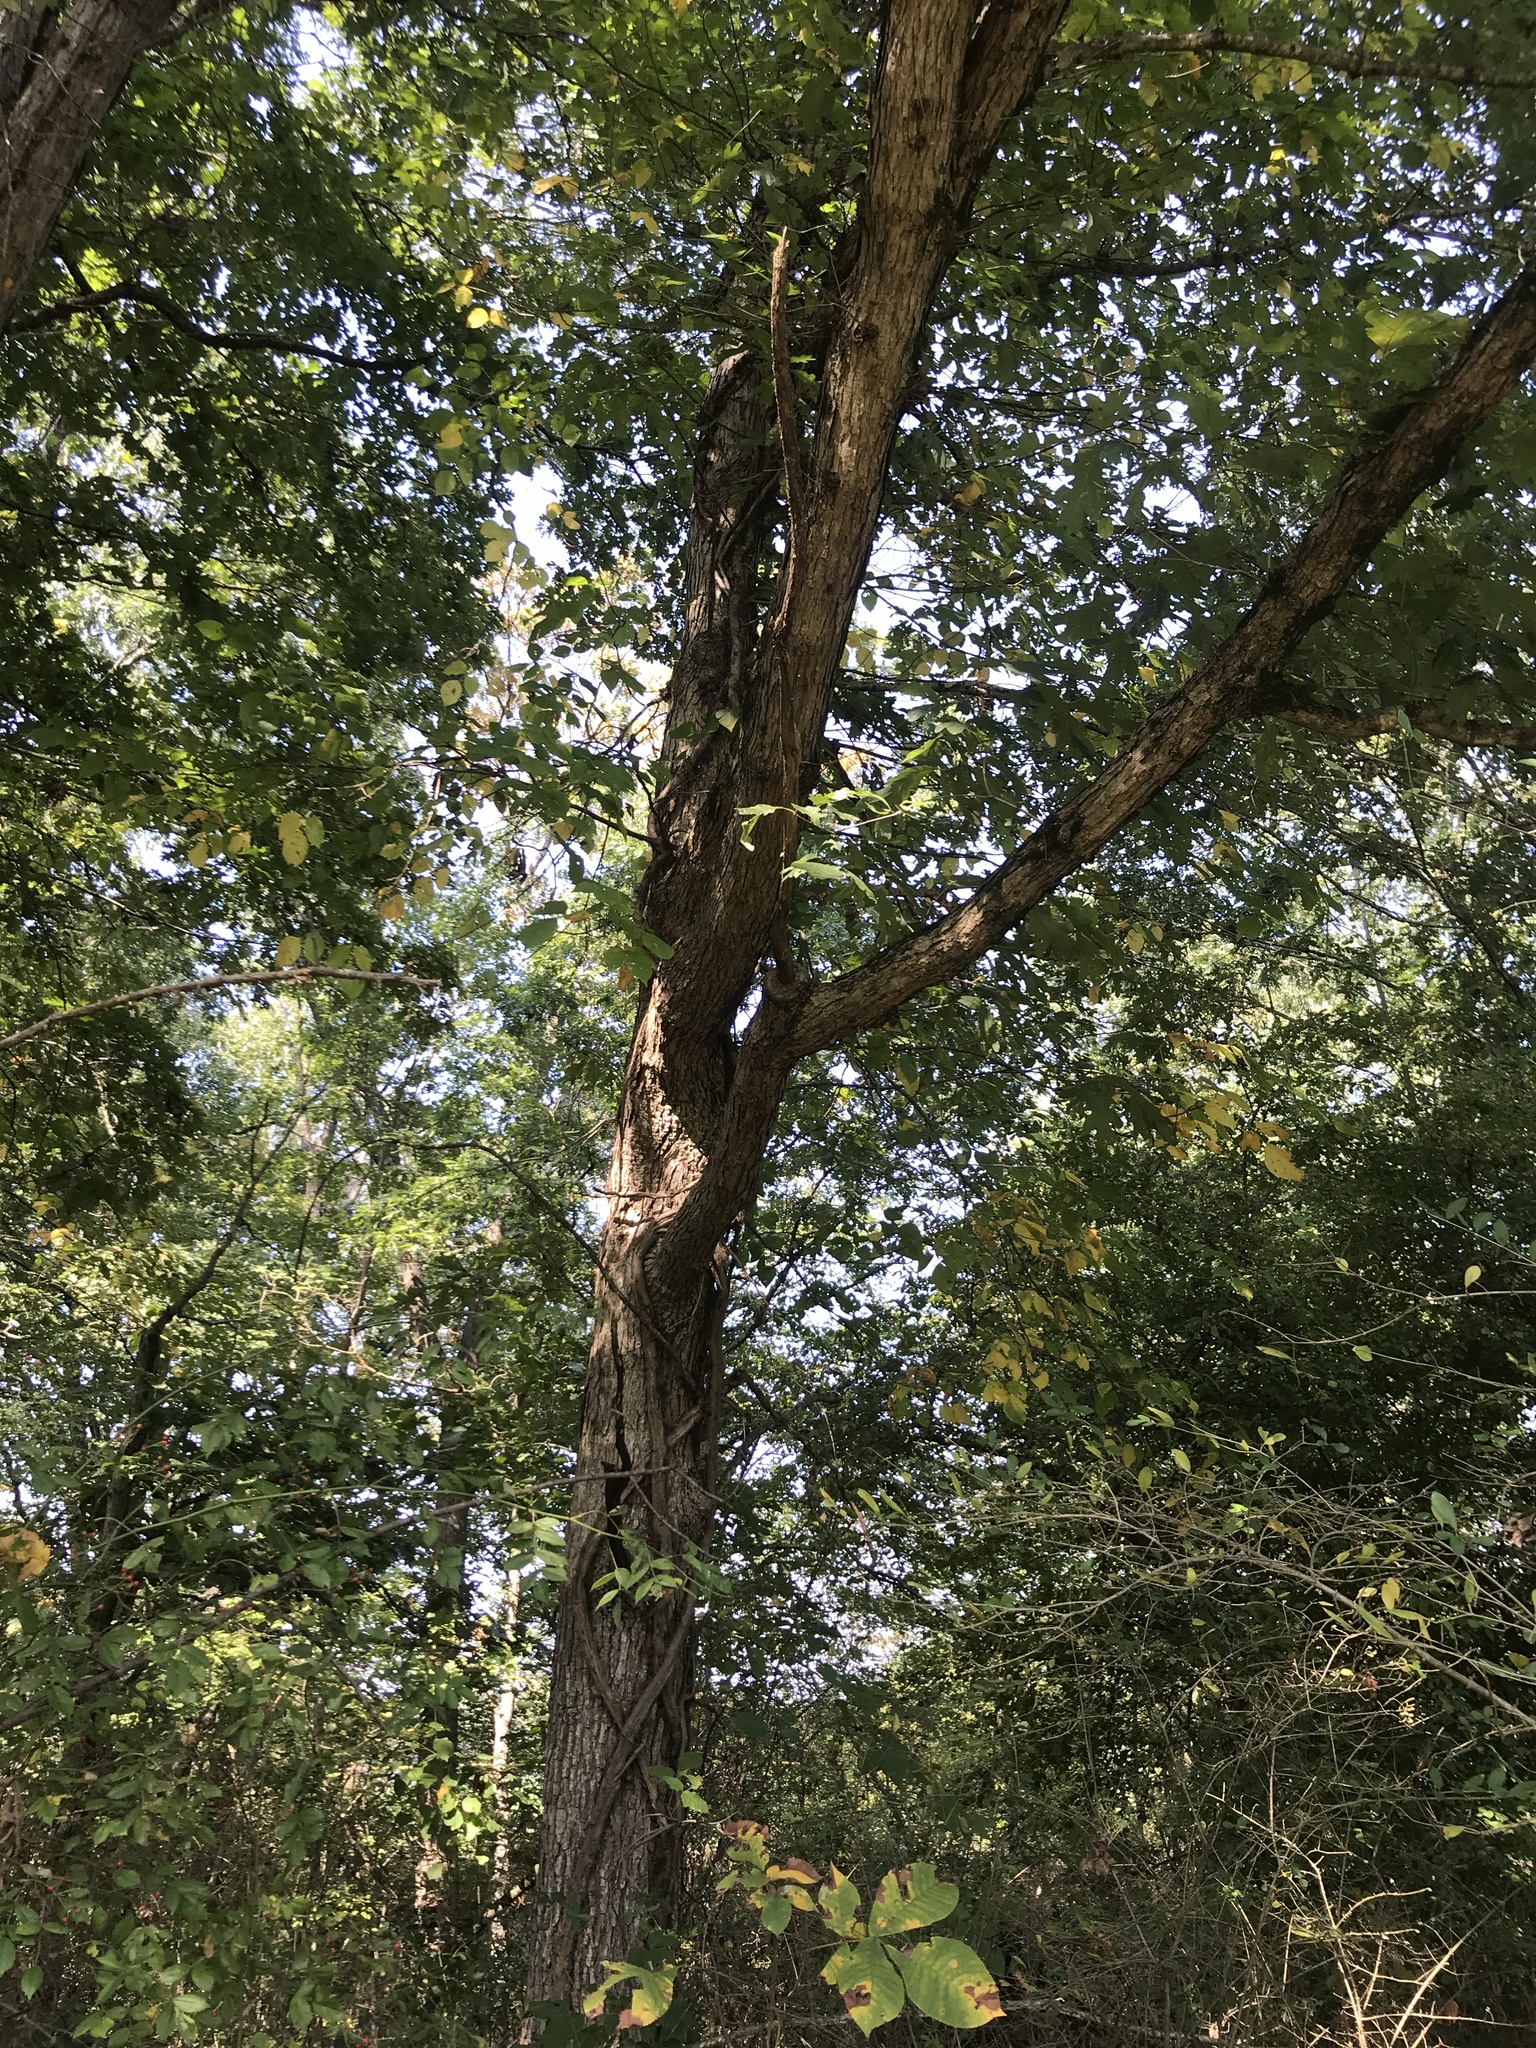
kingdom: Plantae
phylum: Tracheophyta
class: Magnoliopsida
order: Fagales
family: Fagaceae
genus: Quercus
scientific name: Quercus alba
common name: White oak
